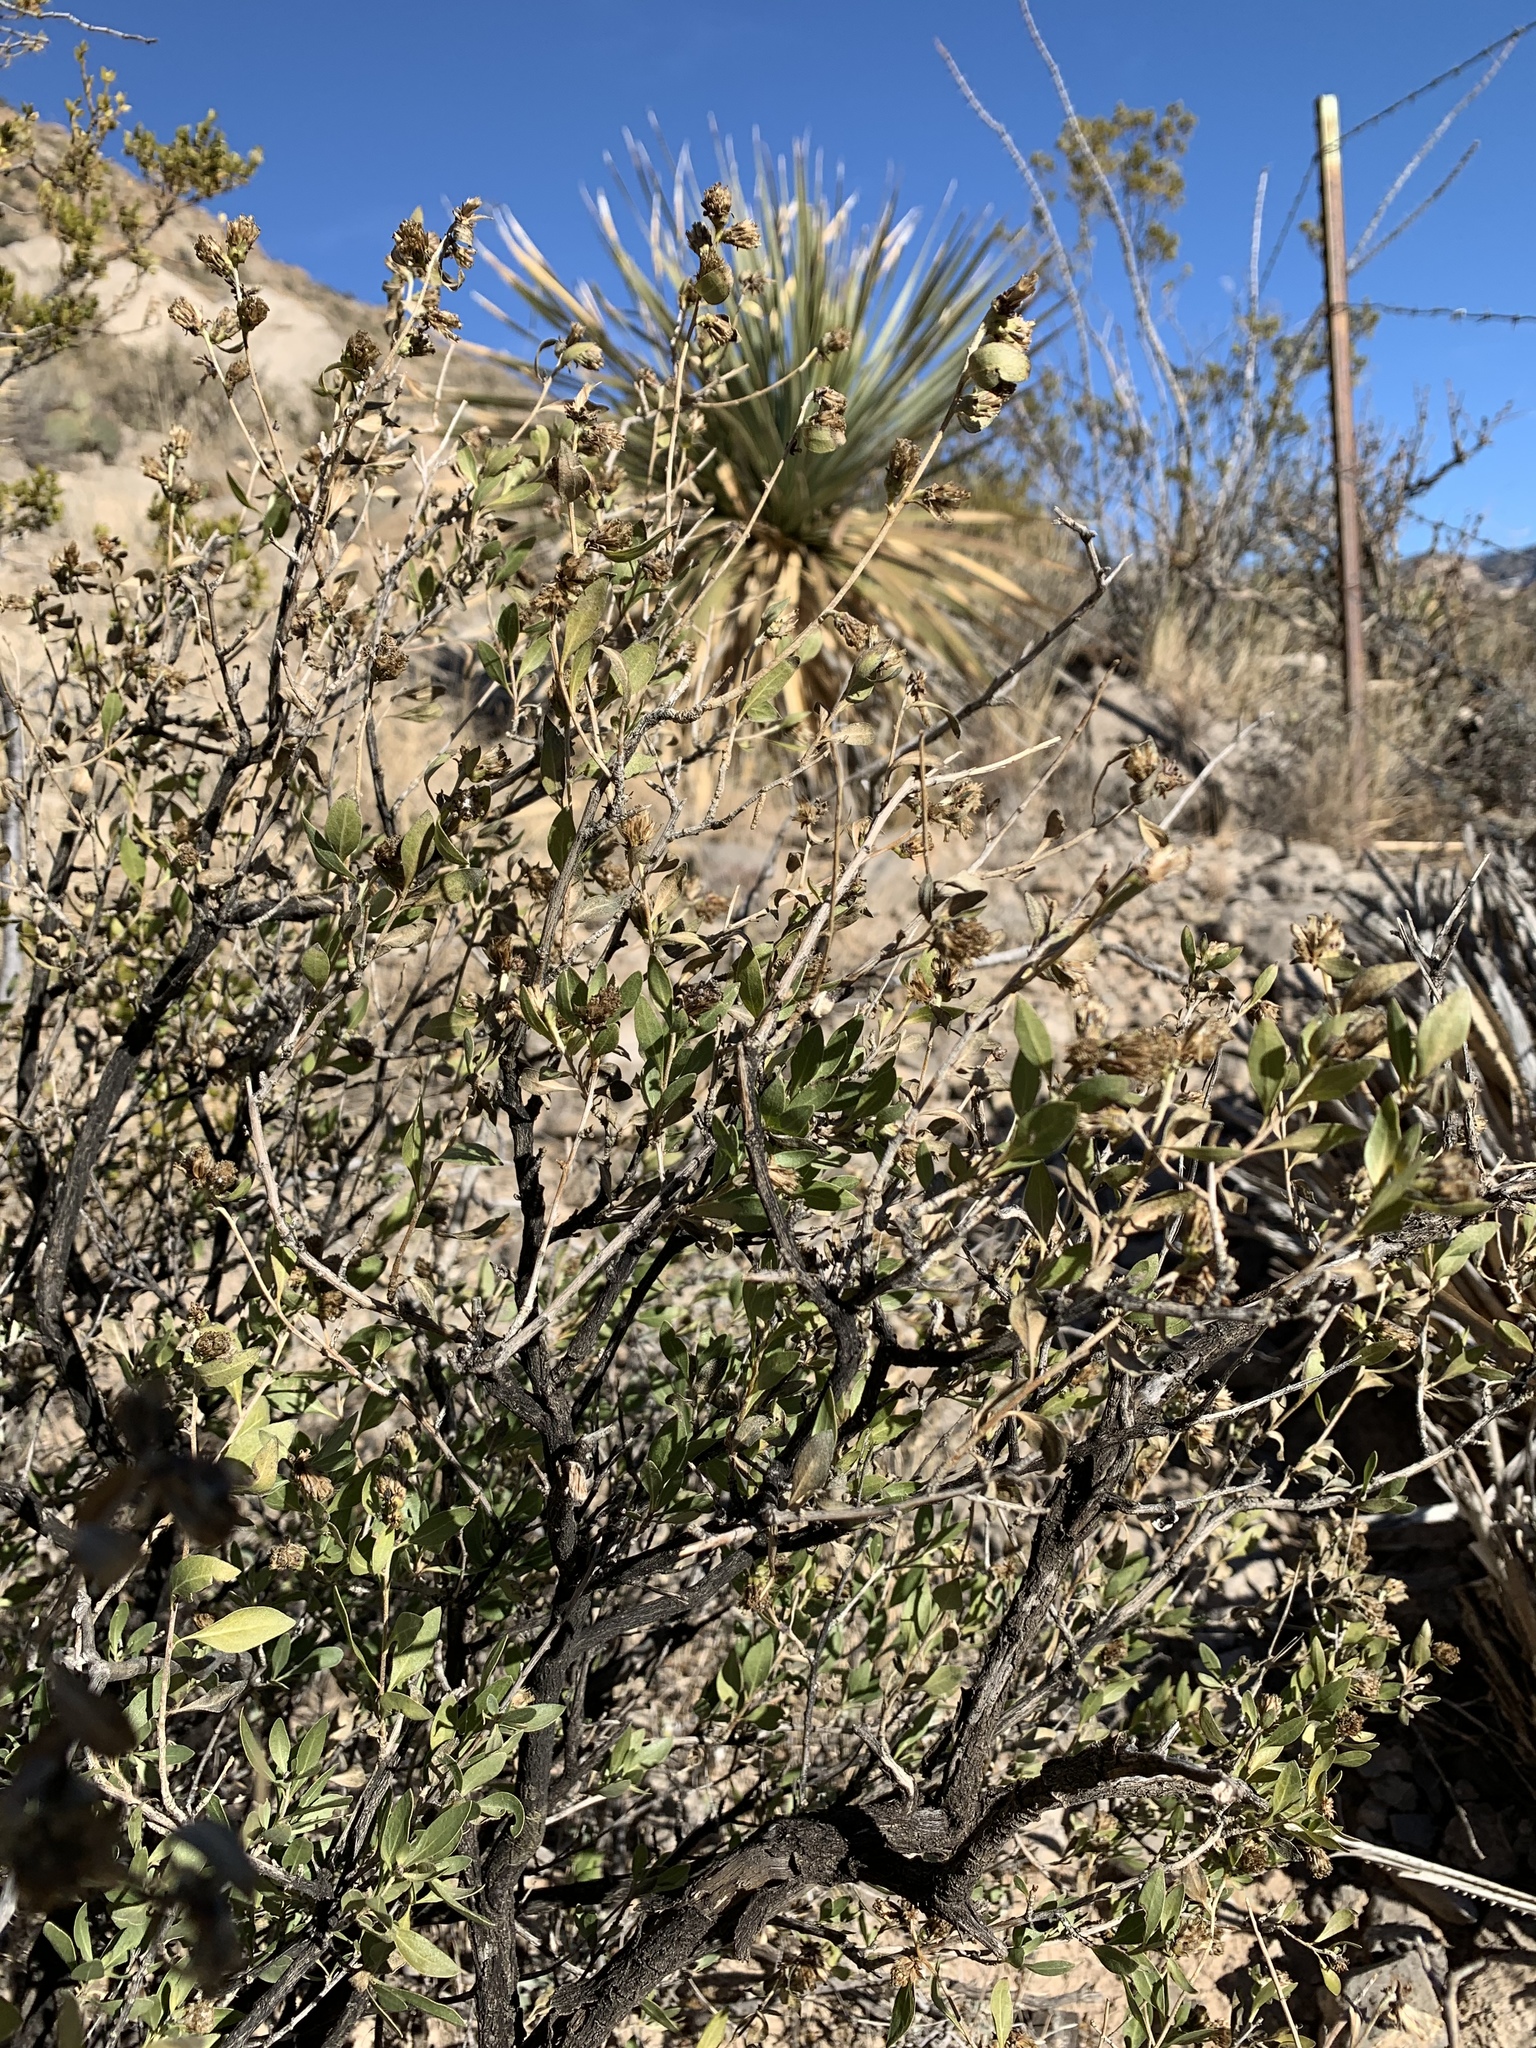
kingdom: Plantae
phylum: Tracheophyta
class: Magnoliopsida
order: Asterales
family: Asteraceae
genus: Flourensia
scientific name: Flourensia cernua
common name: Varnishbush
